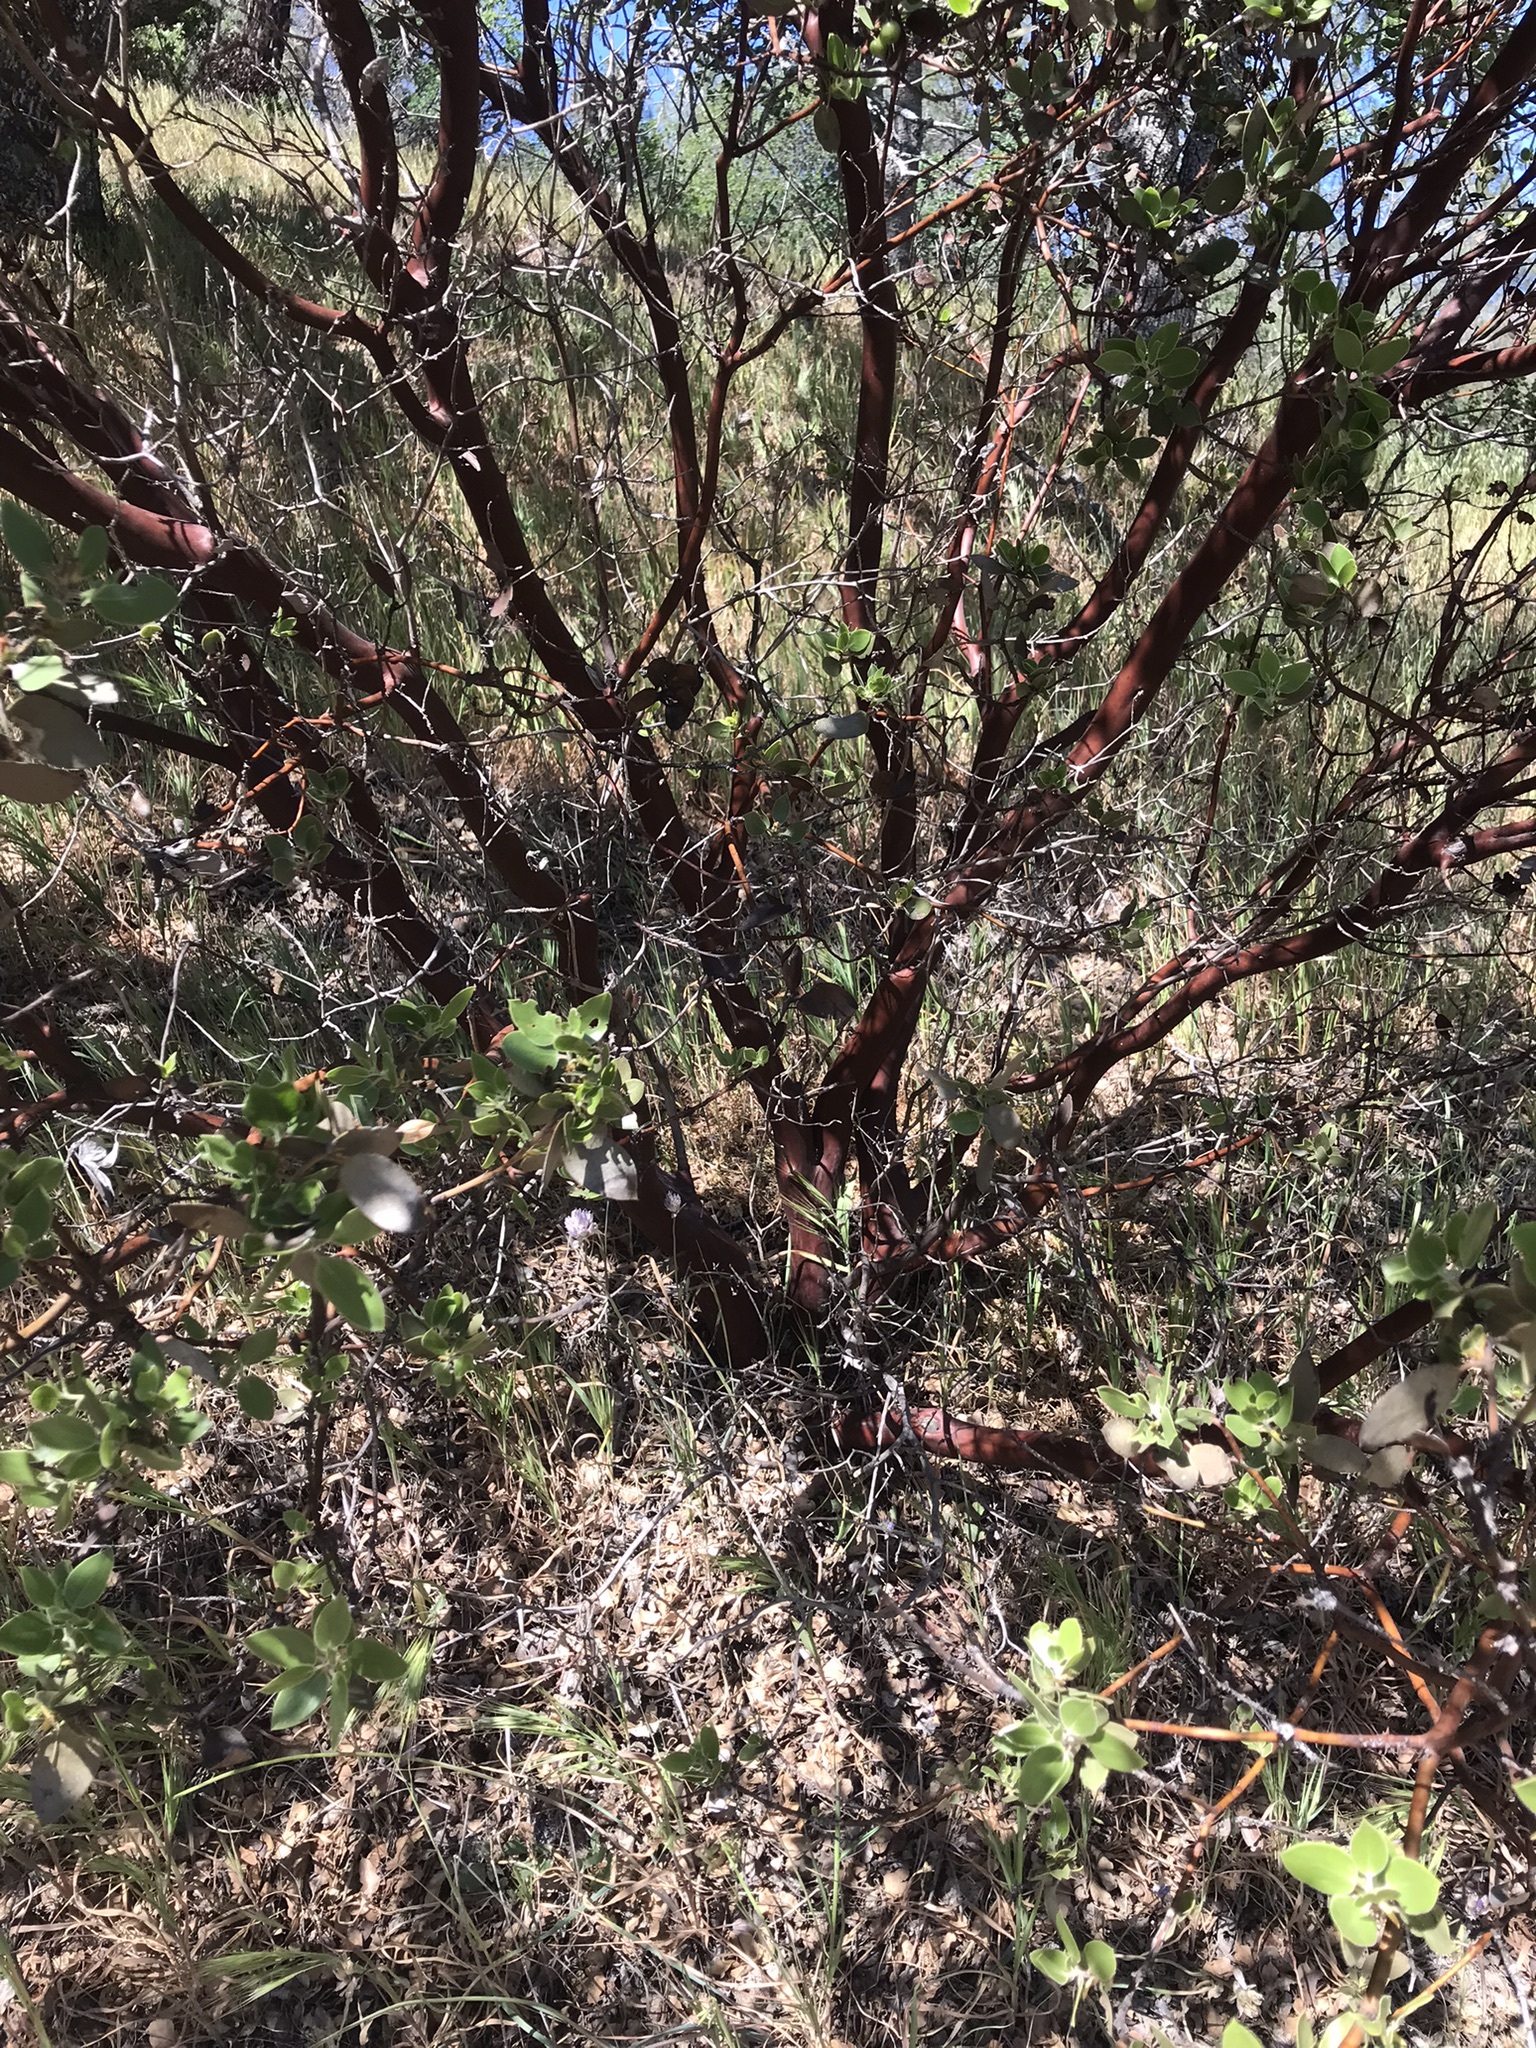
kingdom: Plantae
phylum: Tracheophyta
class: Magnoliopsida
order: Ericales
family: Ericaceae
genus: Arctostaphylos
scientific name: Arctostaphylos manzanita
